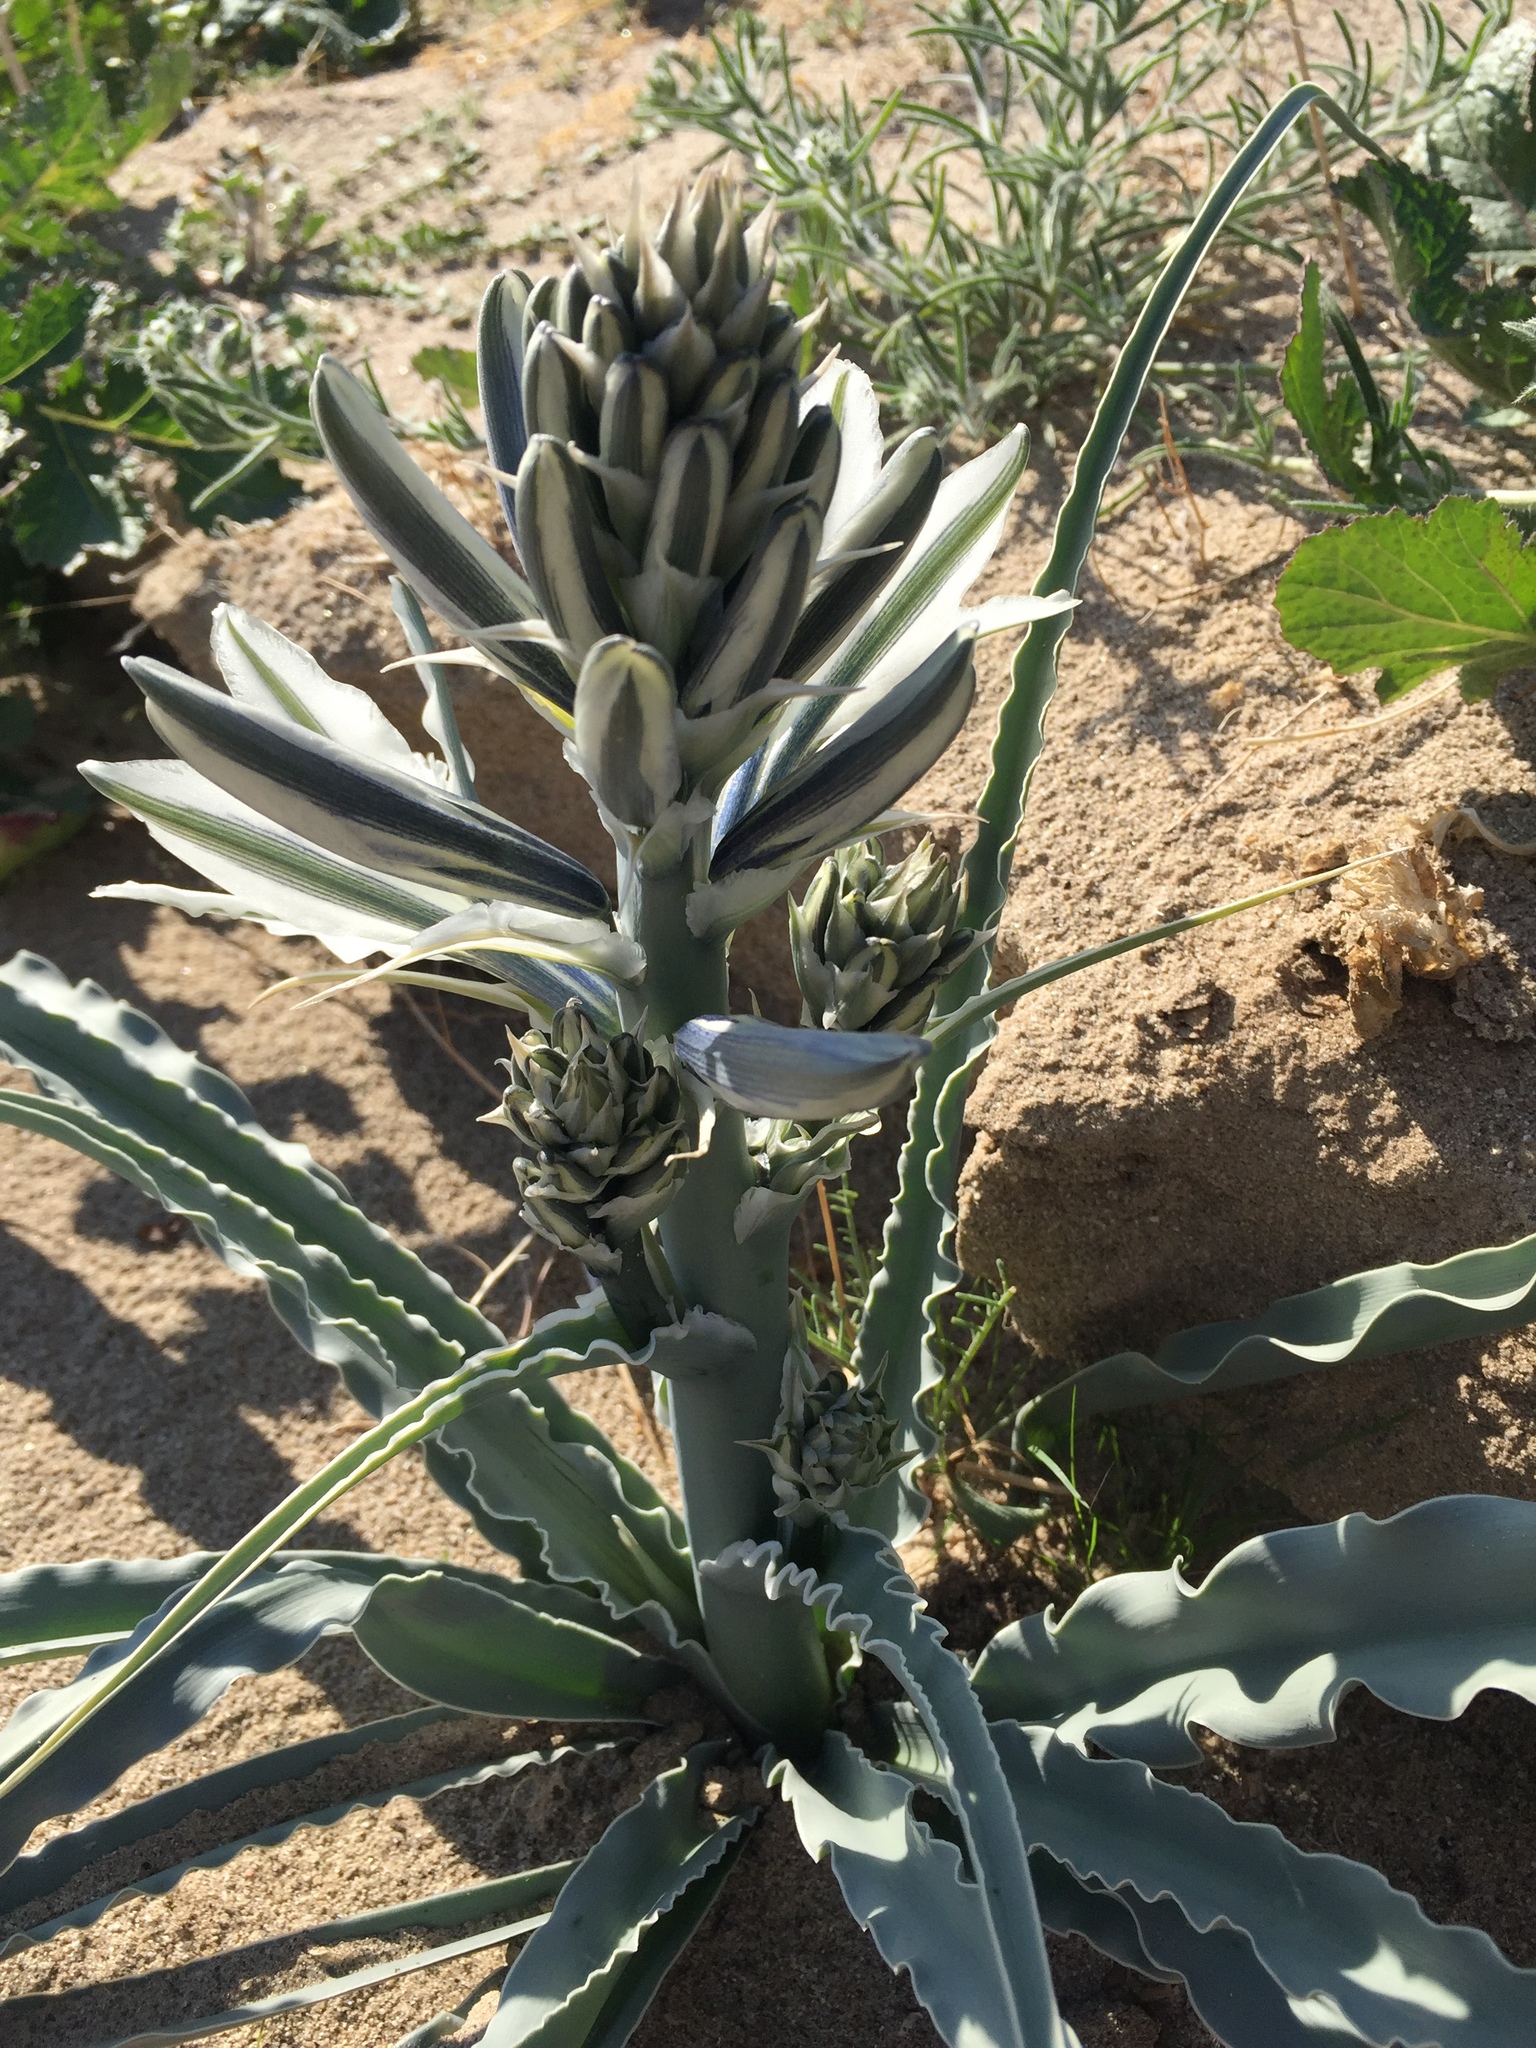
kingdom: Plantae
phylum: Tracheophyta
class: Liliopsida
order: Asparagales
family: Asparagaceae
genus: Hesperocallis
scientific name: Hesperocallis undulata
